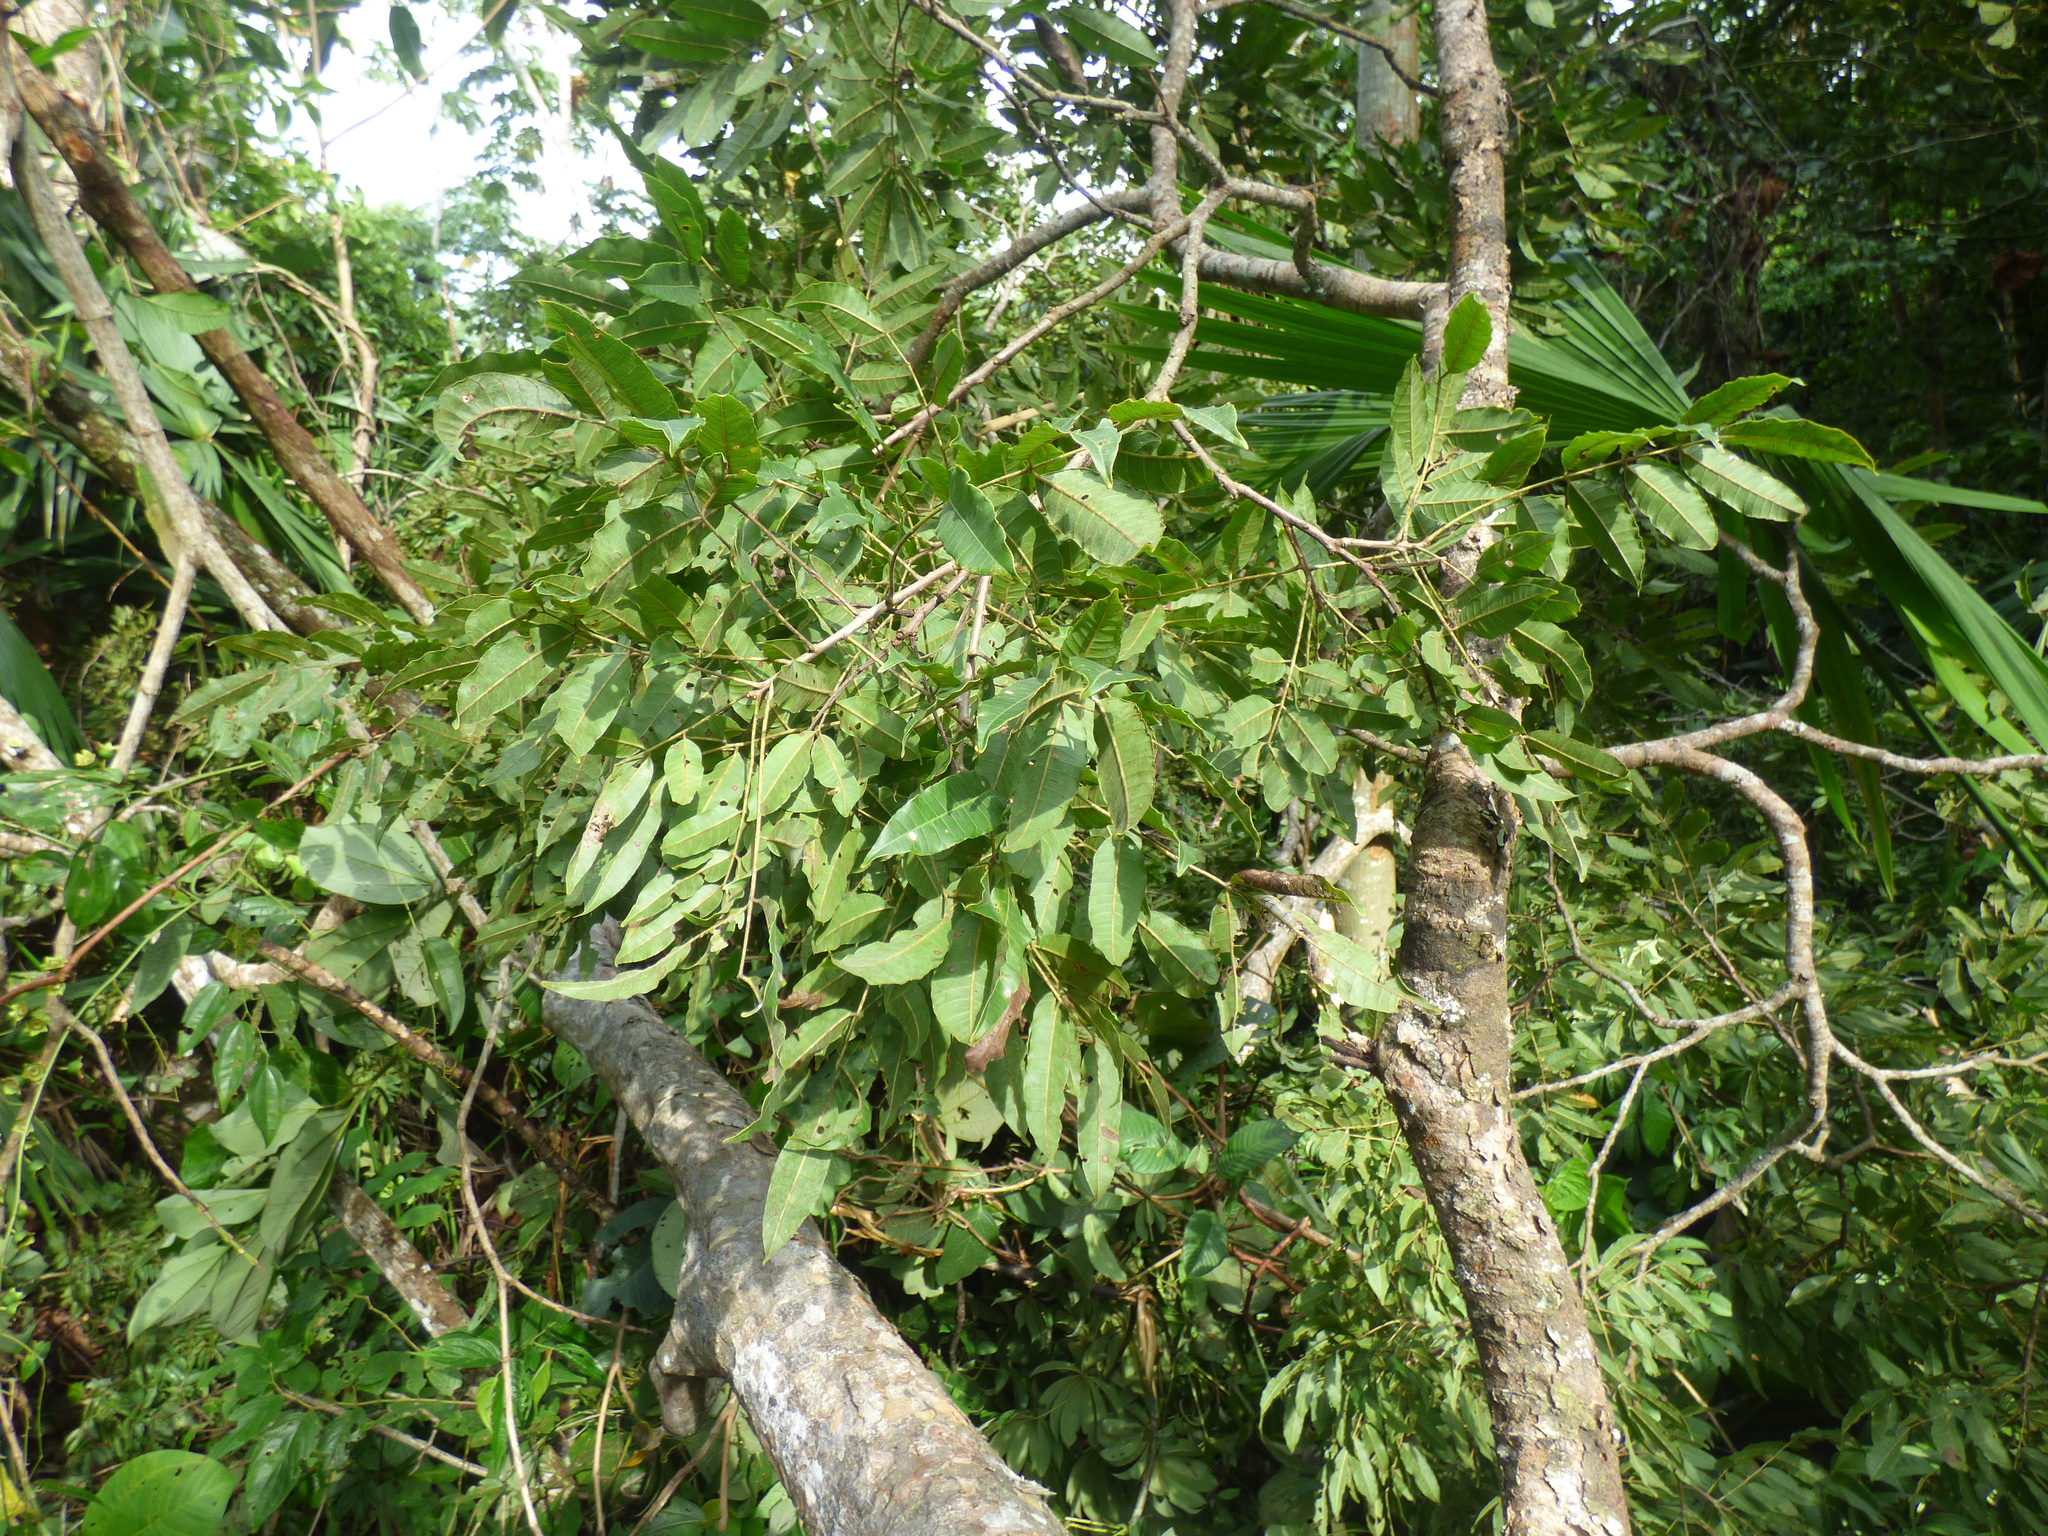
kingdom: Plantae
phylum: Tracheophyta
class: Magnoliopsida
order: Sapindales
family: Anacardiaceae
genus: Astronium
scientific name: Astronium graveolens
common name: Glassywood
